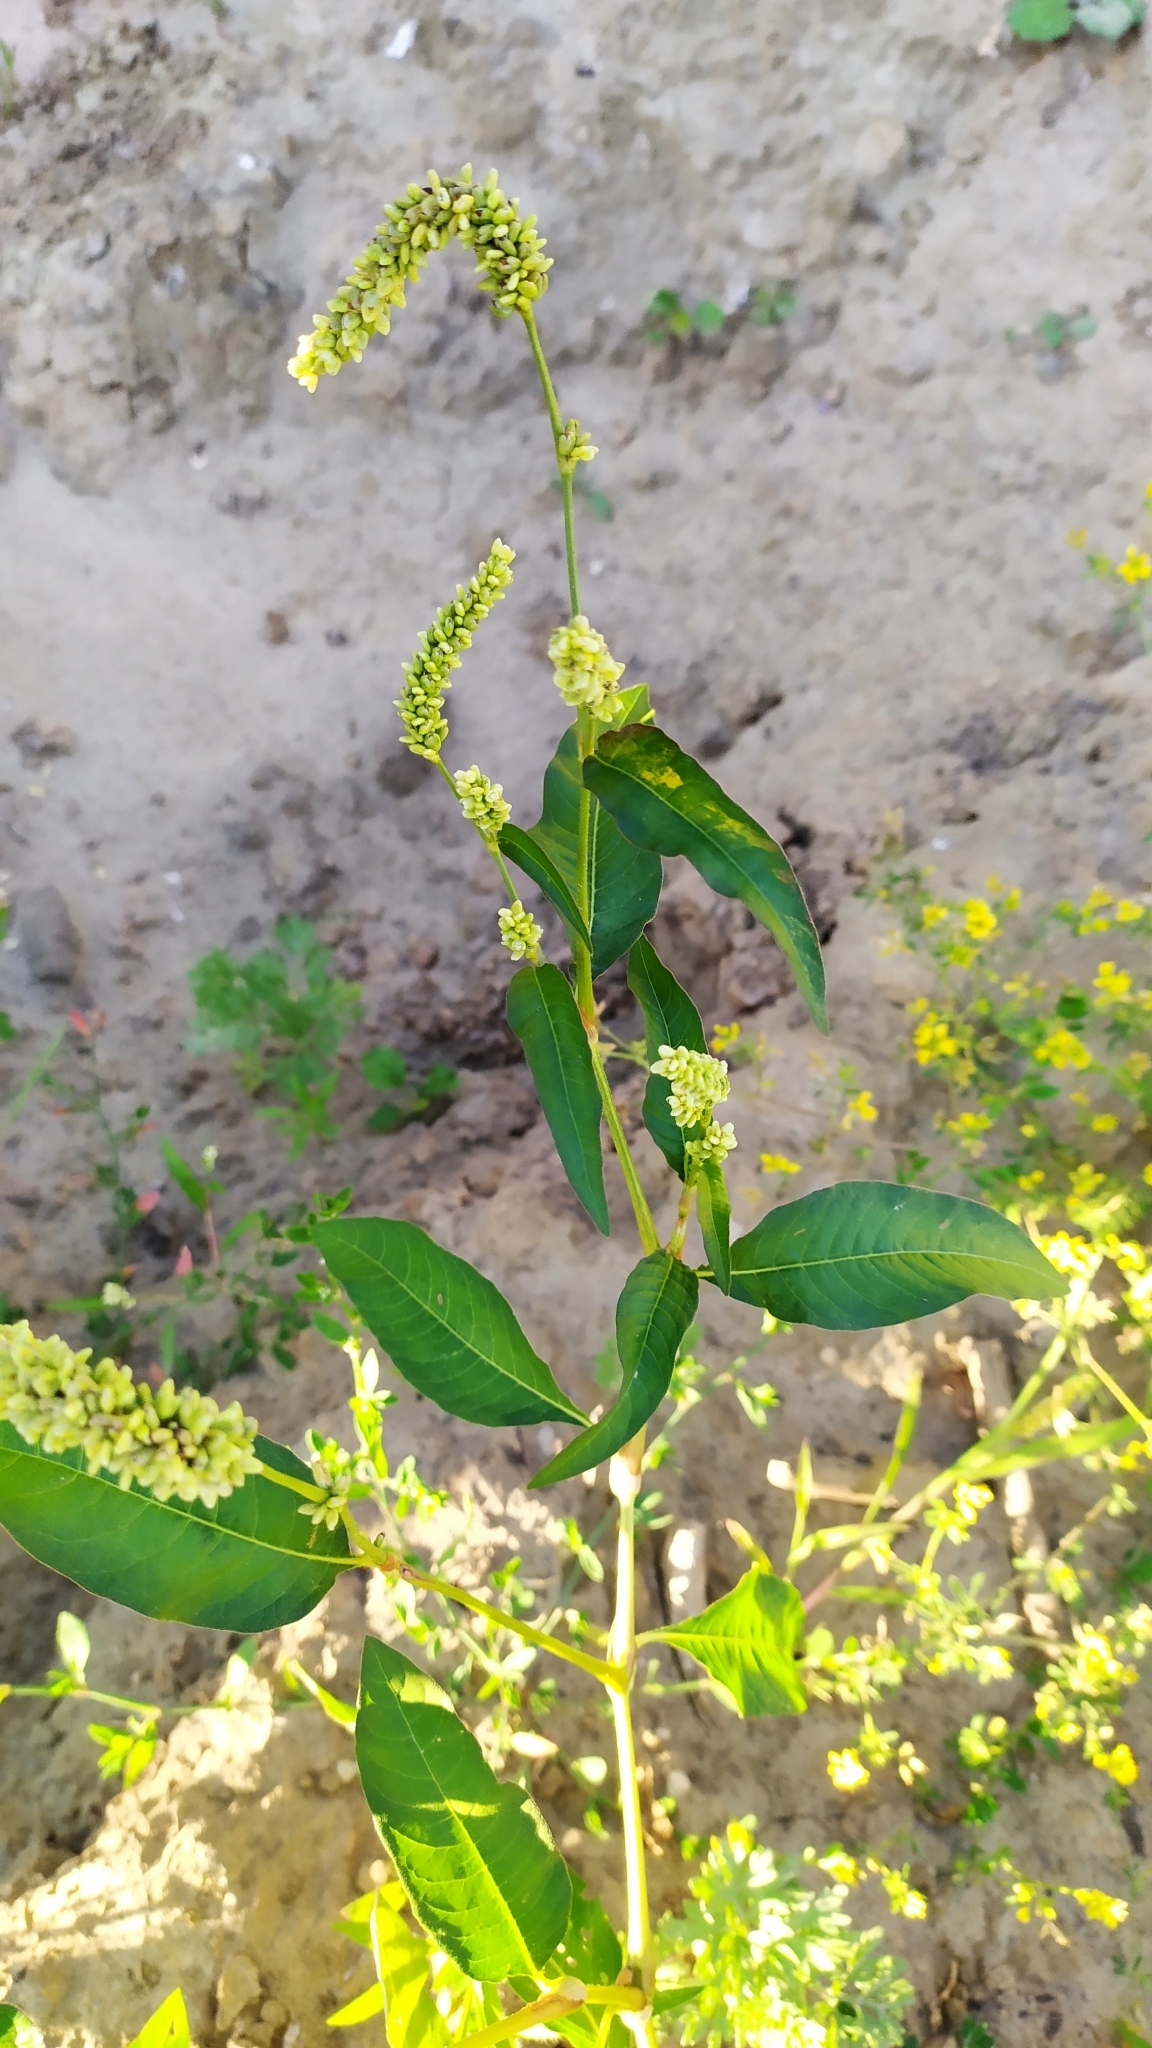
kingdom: Plantae
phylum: Tracheophyta
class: Magnoliopsida
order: Caryophyllales
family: Polygonaceae
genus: Persicaria
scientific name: Persicaria lapathifolia
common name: Curlytop knotweed
